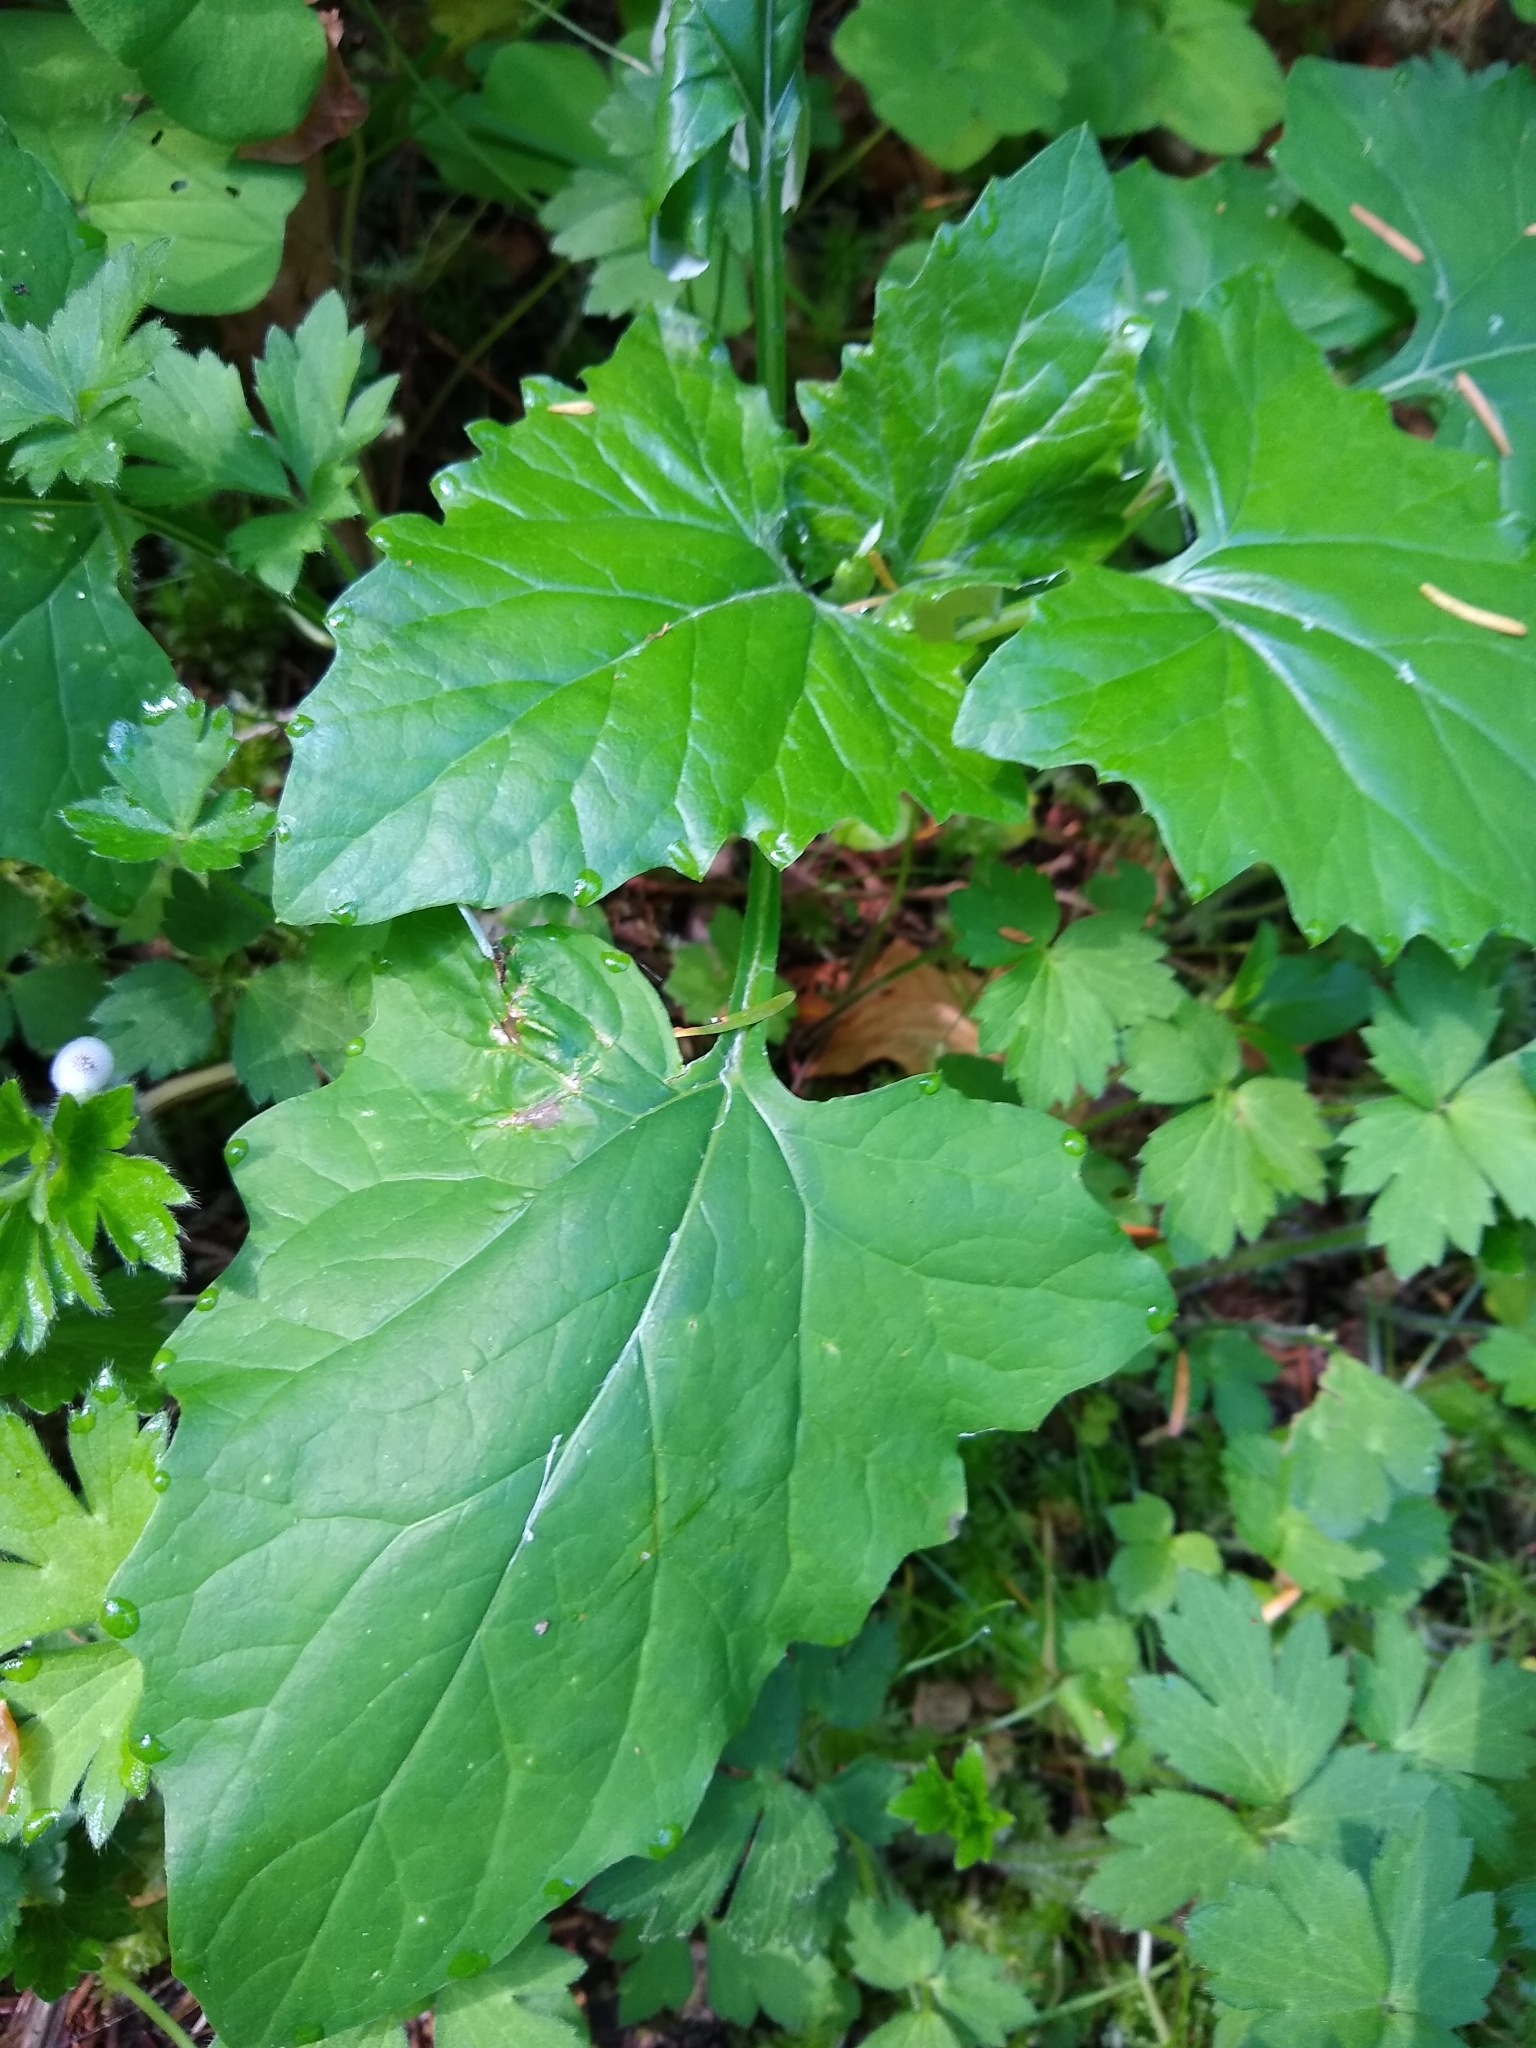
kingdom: Plantae
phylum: Tracheophyta
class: Magnoliopsida
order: Asterales
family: Asteraceae
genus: Adenocaulon
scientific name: Adenocaulon bicolor
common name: Trailplant
